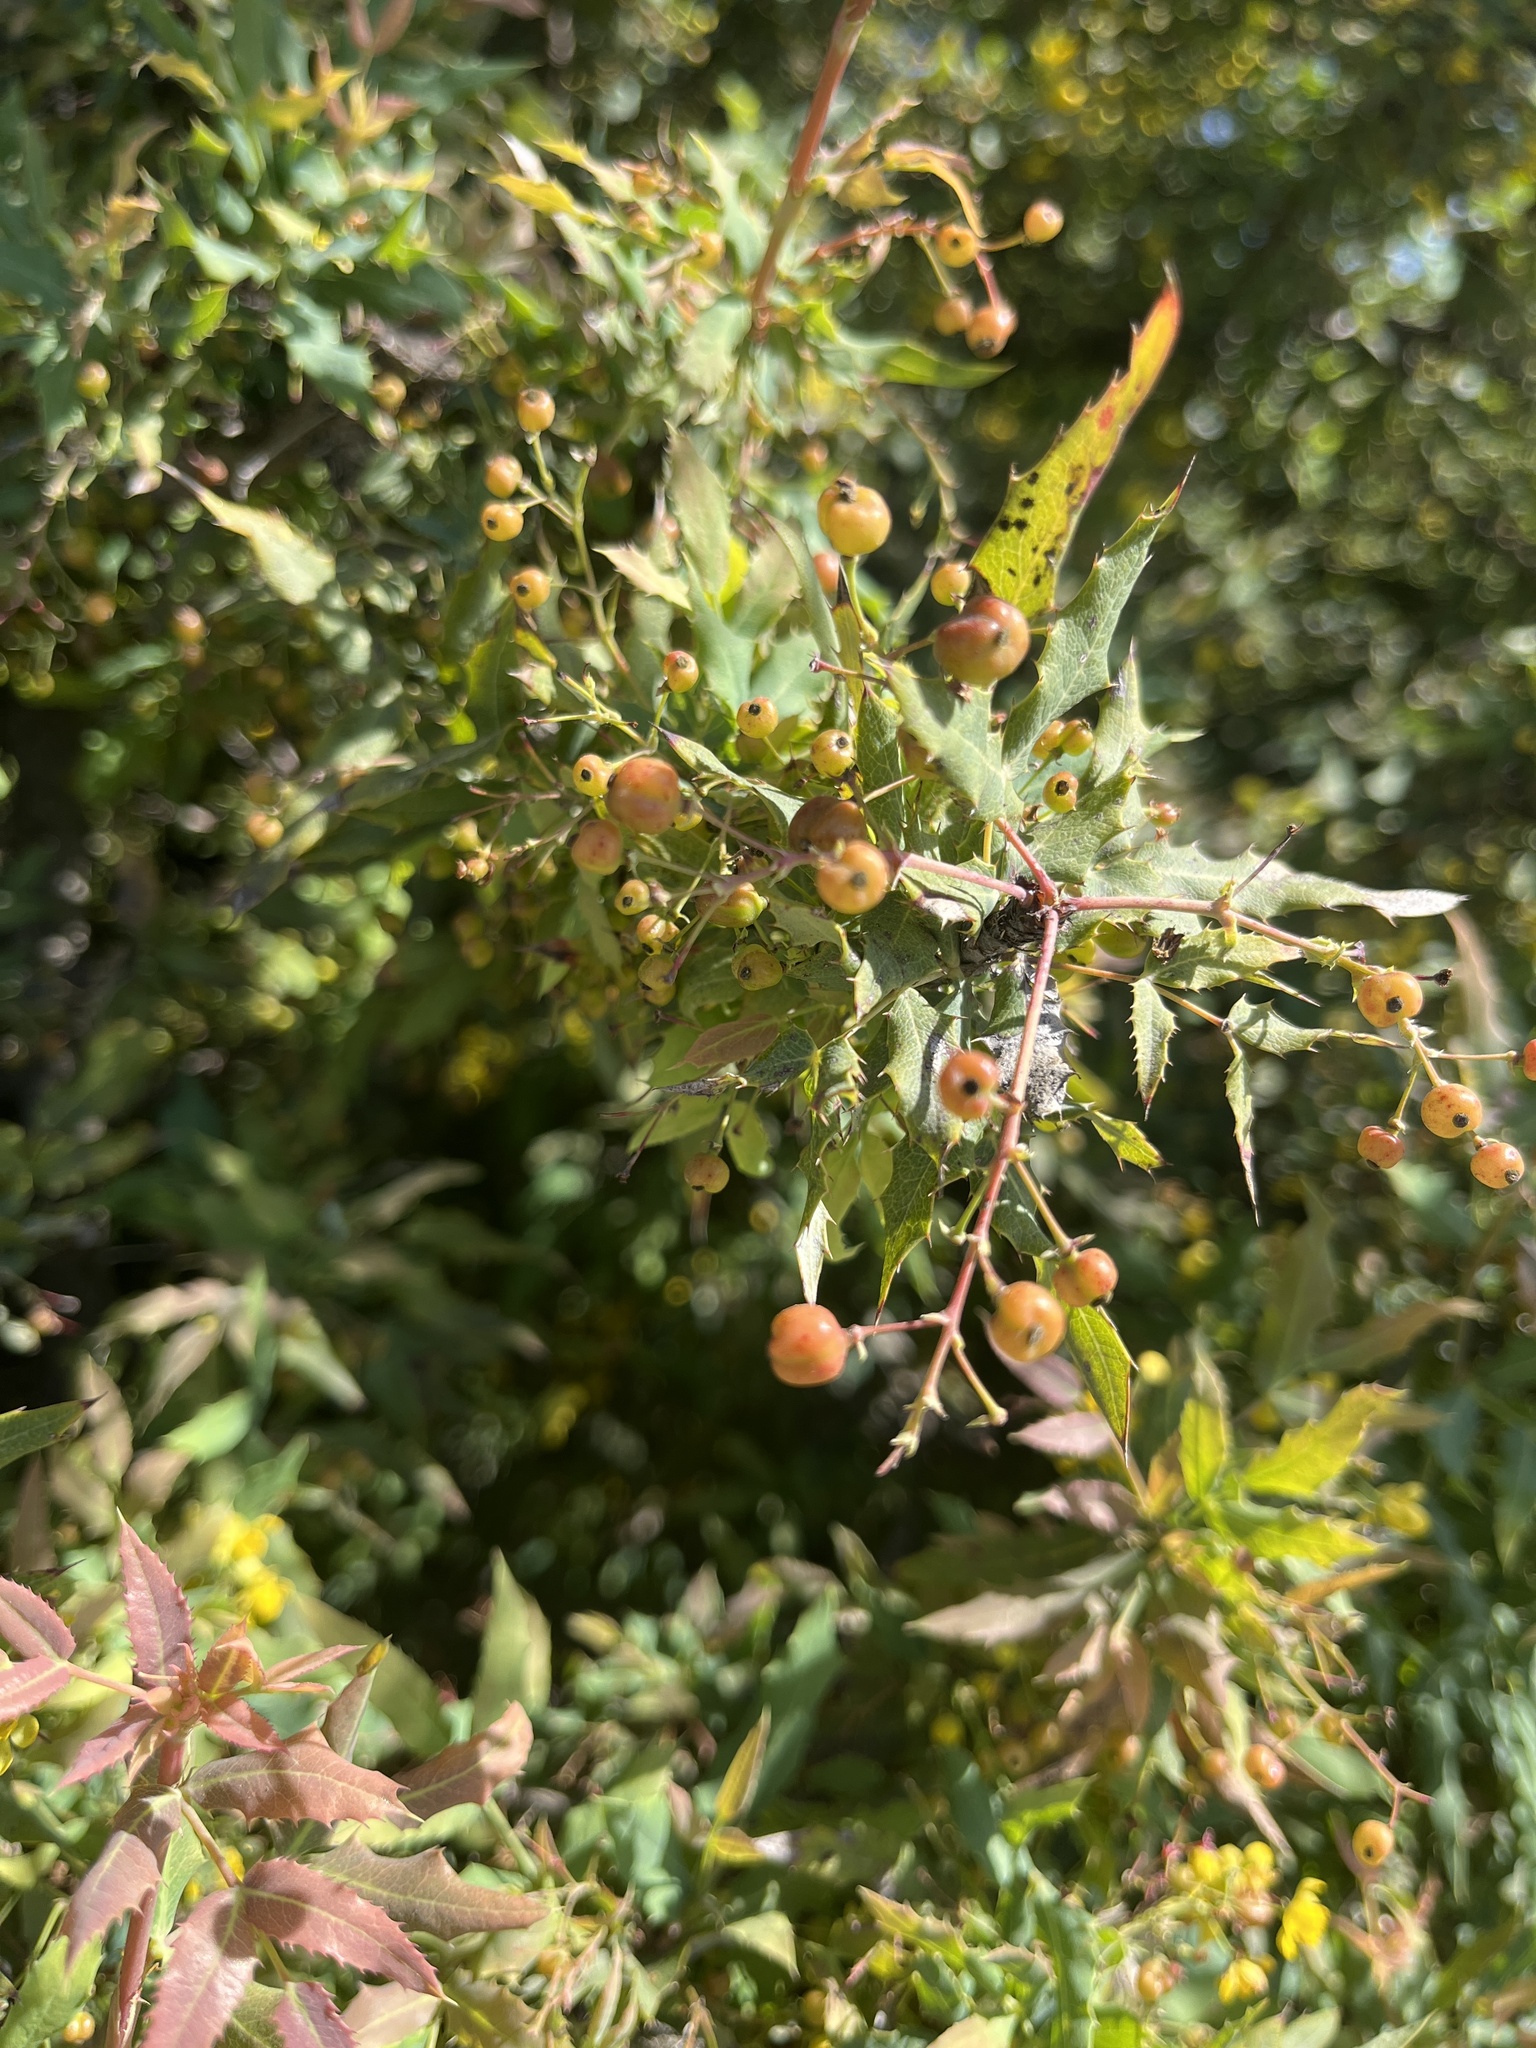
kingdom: Plantae
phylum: Tracheophyta
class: Magnoliopsida
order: Ranunculales
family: Berberidaceae
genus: Alloberberis
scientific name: Alloberberis nevinii
